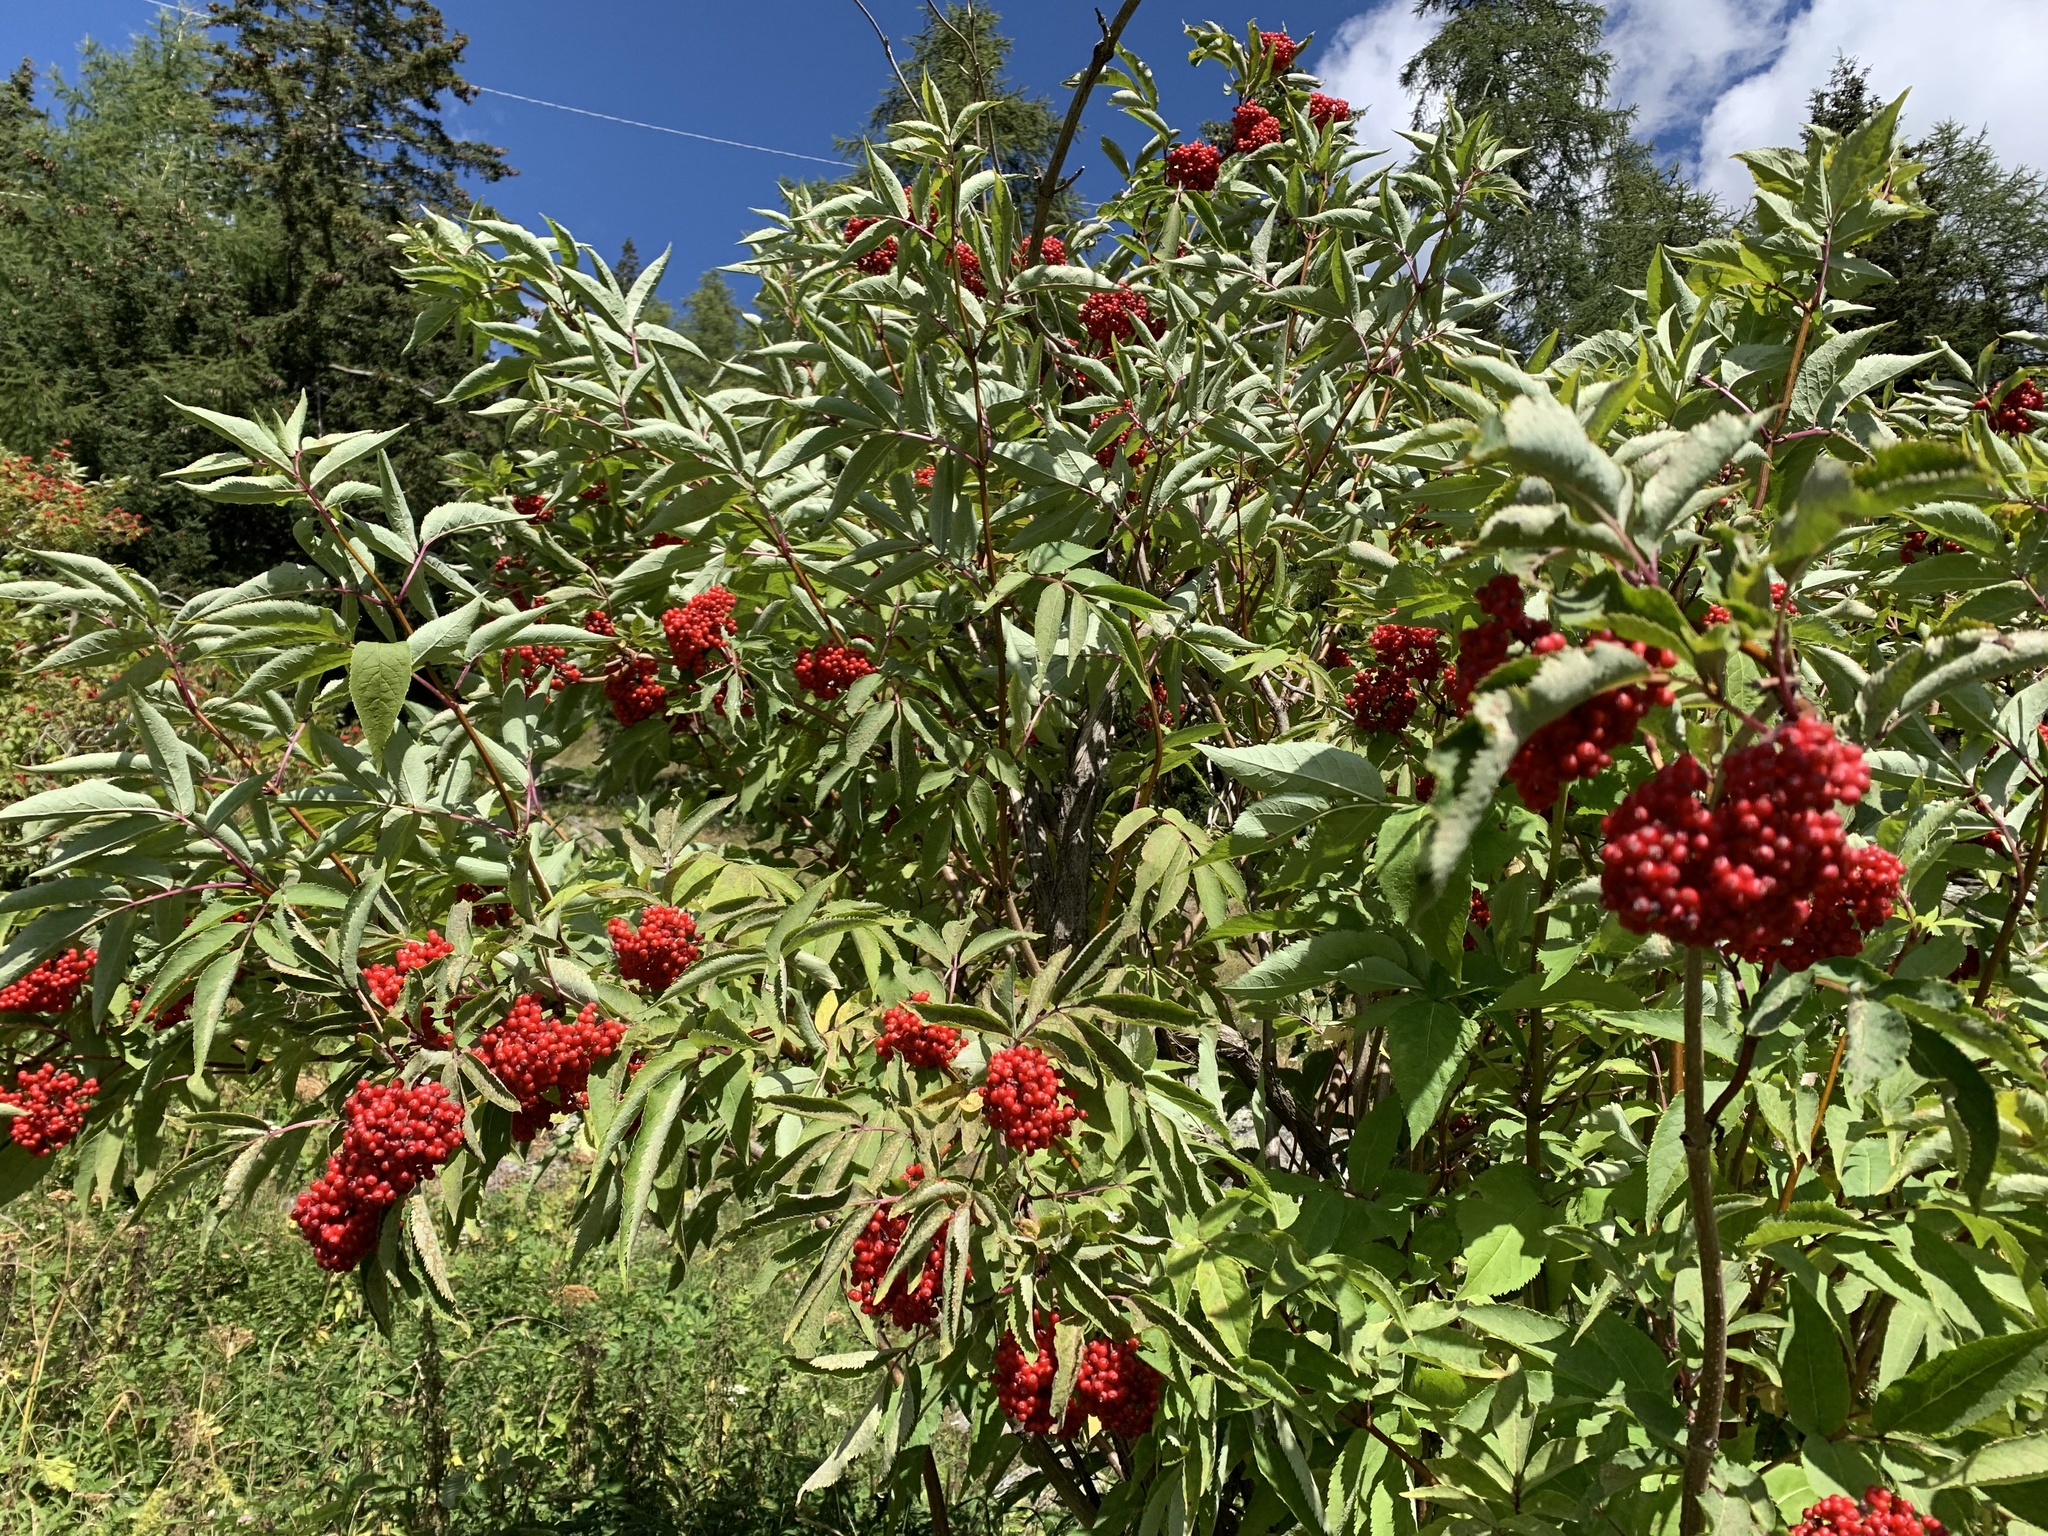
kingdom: Plantae
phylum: Tracheophyta
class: Magnoliopsida
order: Dipsacales
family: Viburnaceae
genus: Sambucus
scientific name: Sambucus racemosa
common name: Red-berried elder
